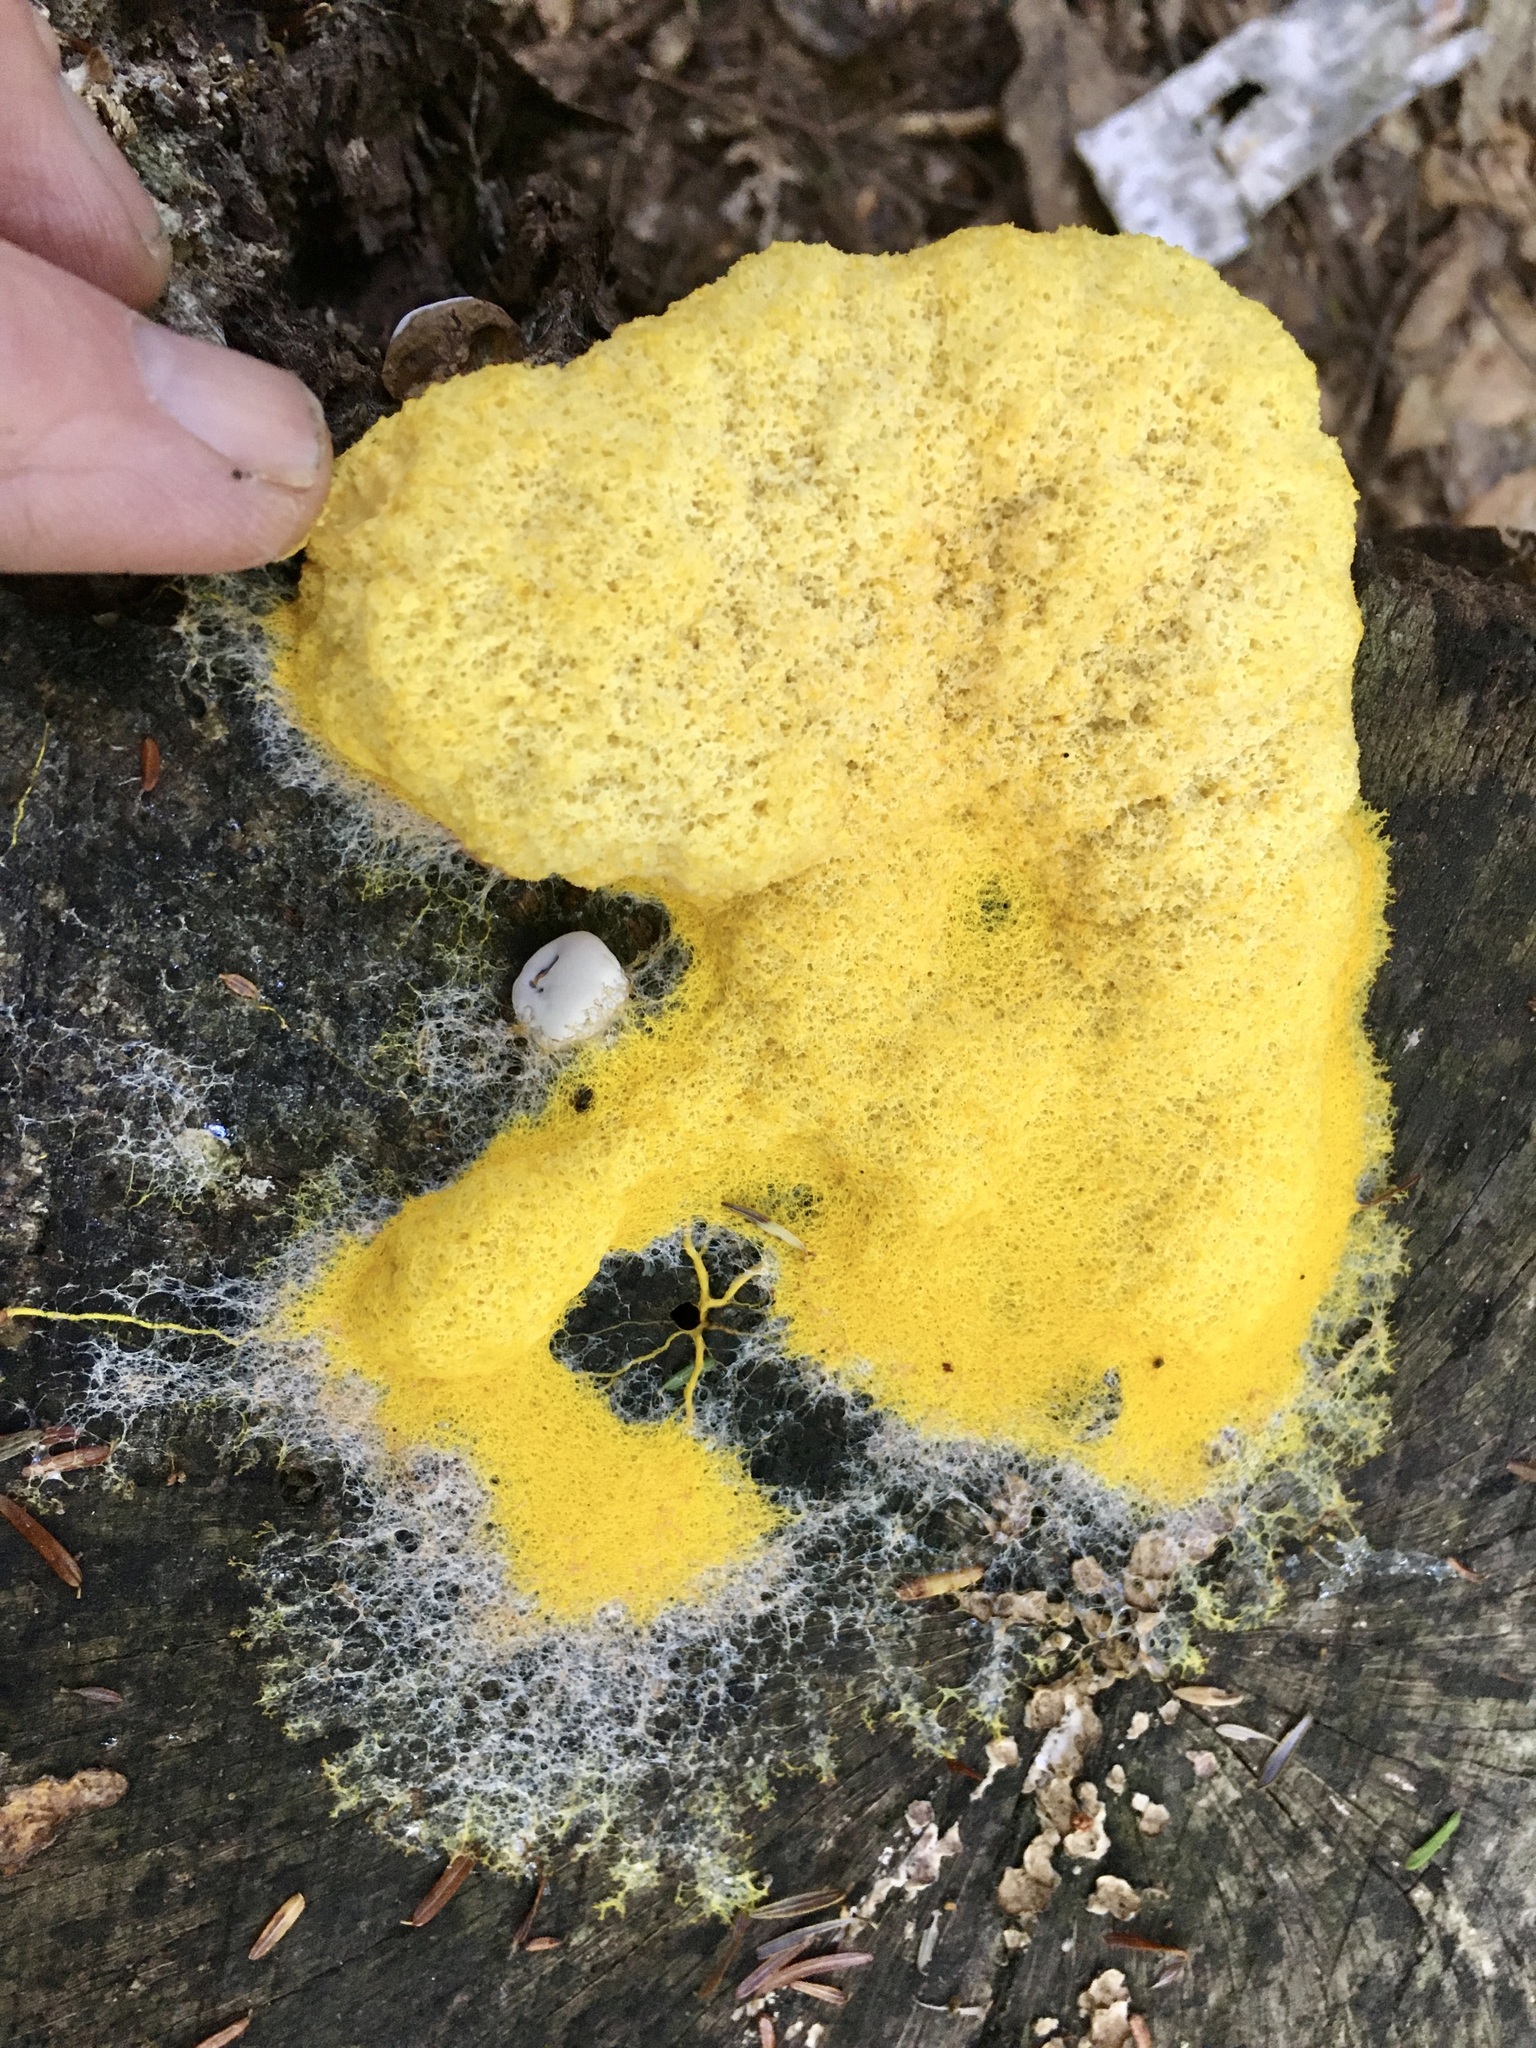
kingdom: Protozoa
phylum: Mycetozoa
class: Myxomycetes
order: Physarales
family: Physaraceae
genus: Fuligo
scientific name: Fuligo septica
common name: Dog vomit slime mold
